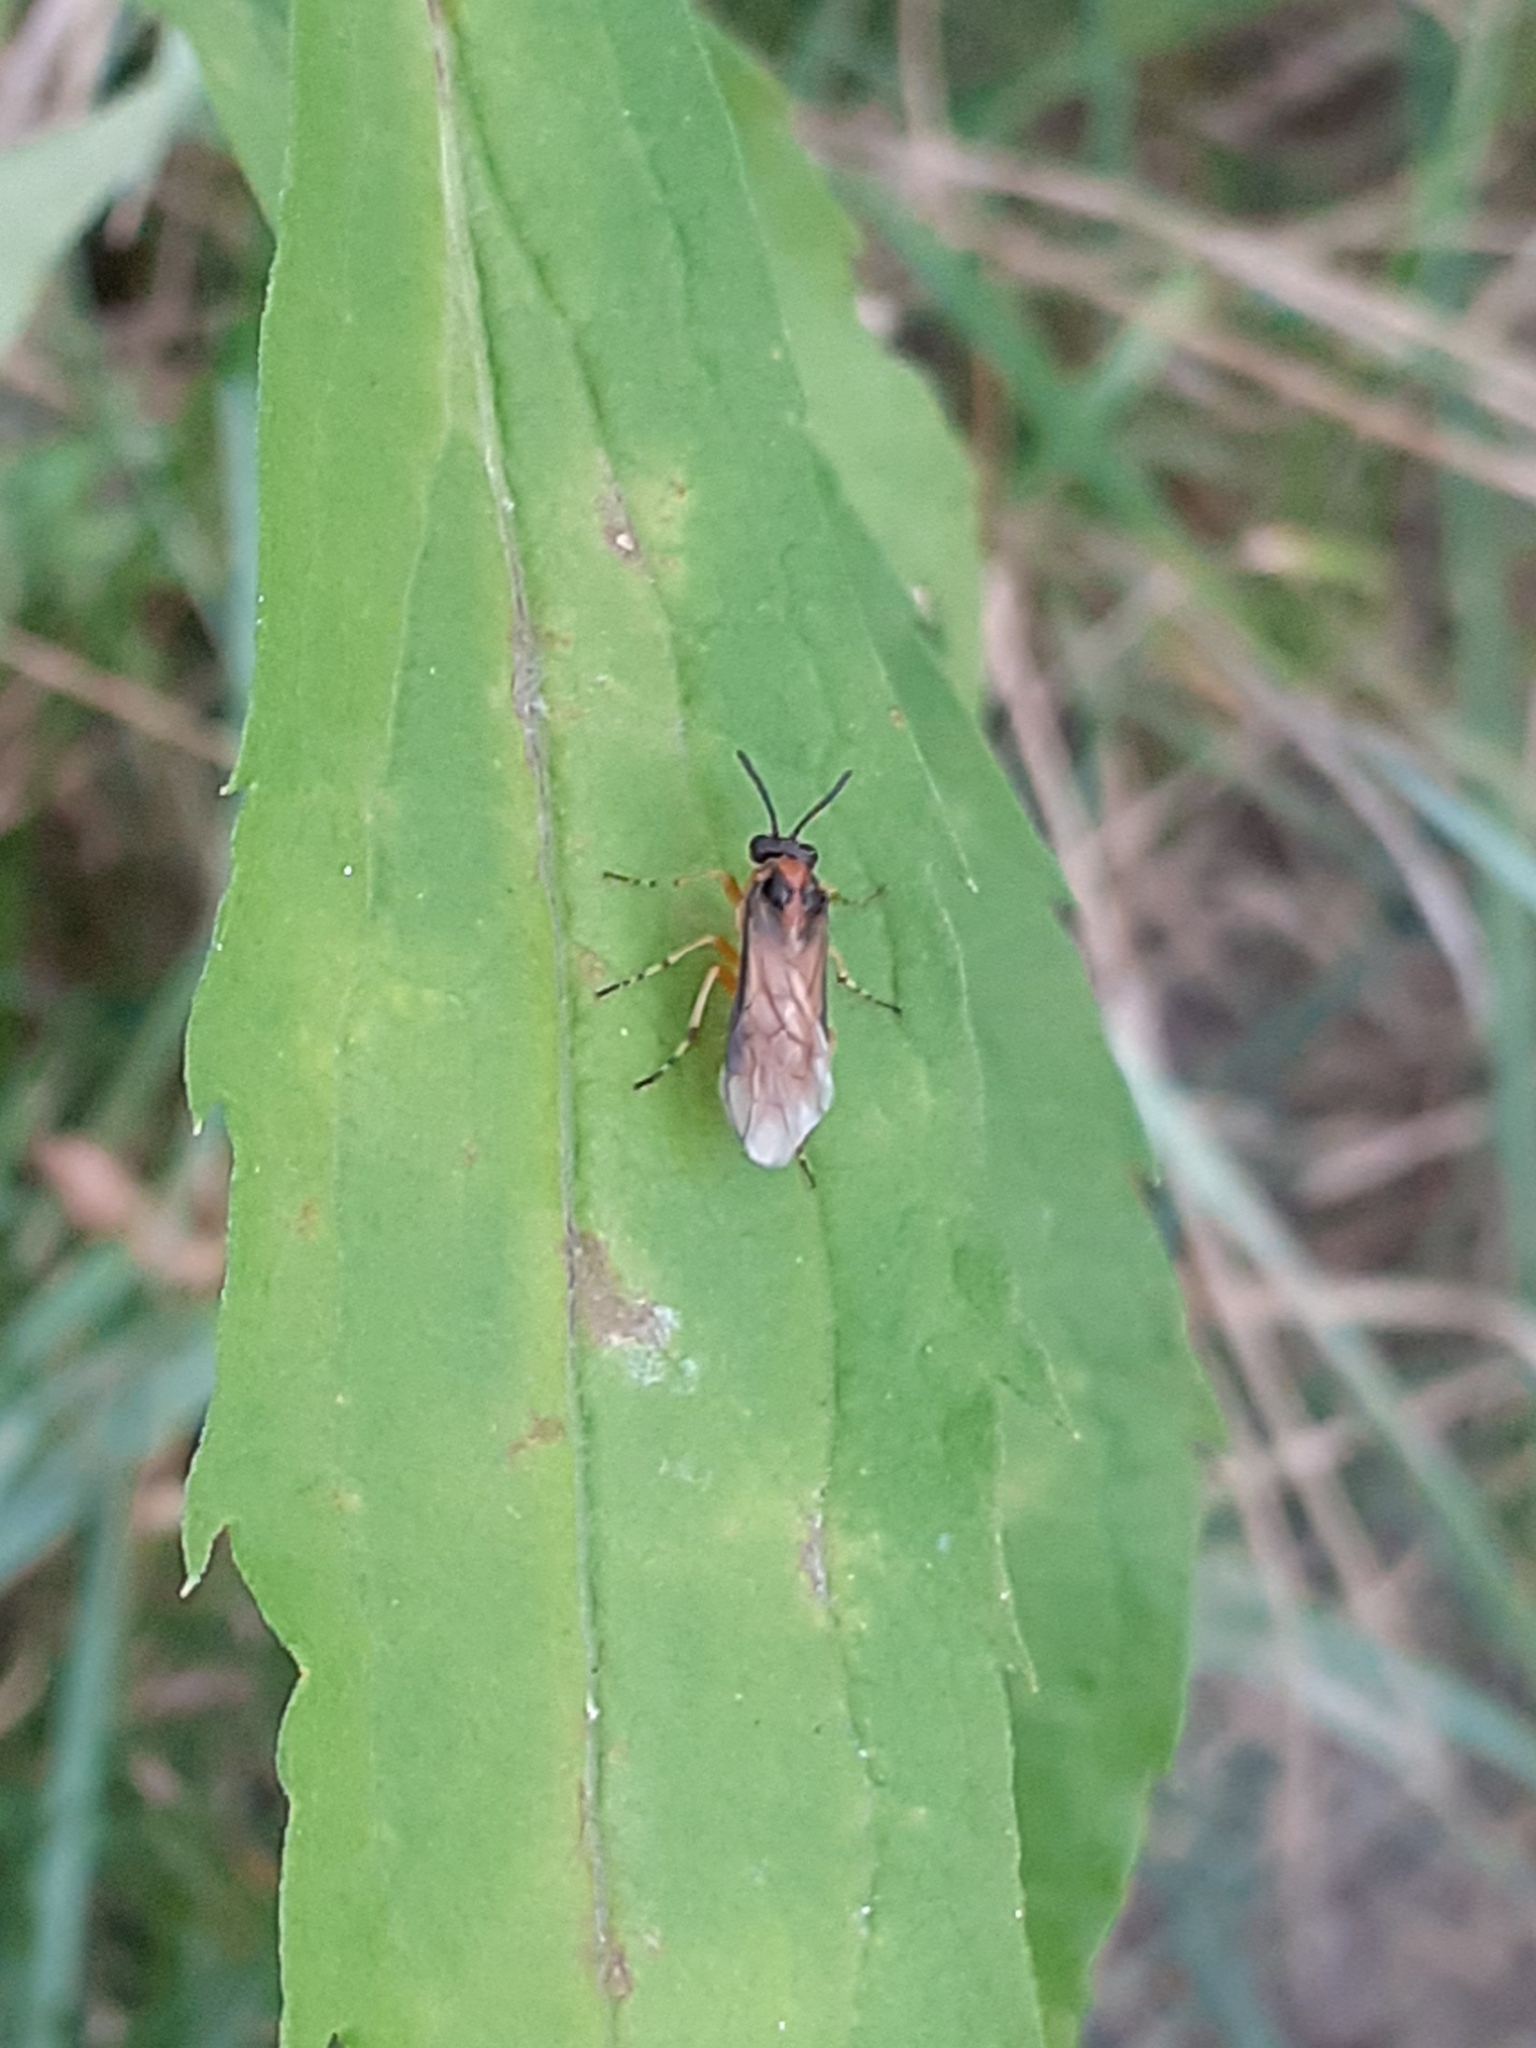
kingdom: Animalia
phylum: Arthropoda
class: Insecta
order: Hymenoptera
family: Tenthredinidae
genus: Athalia
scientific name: Athalia rosae
